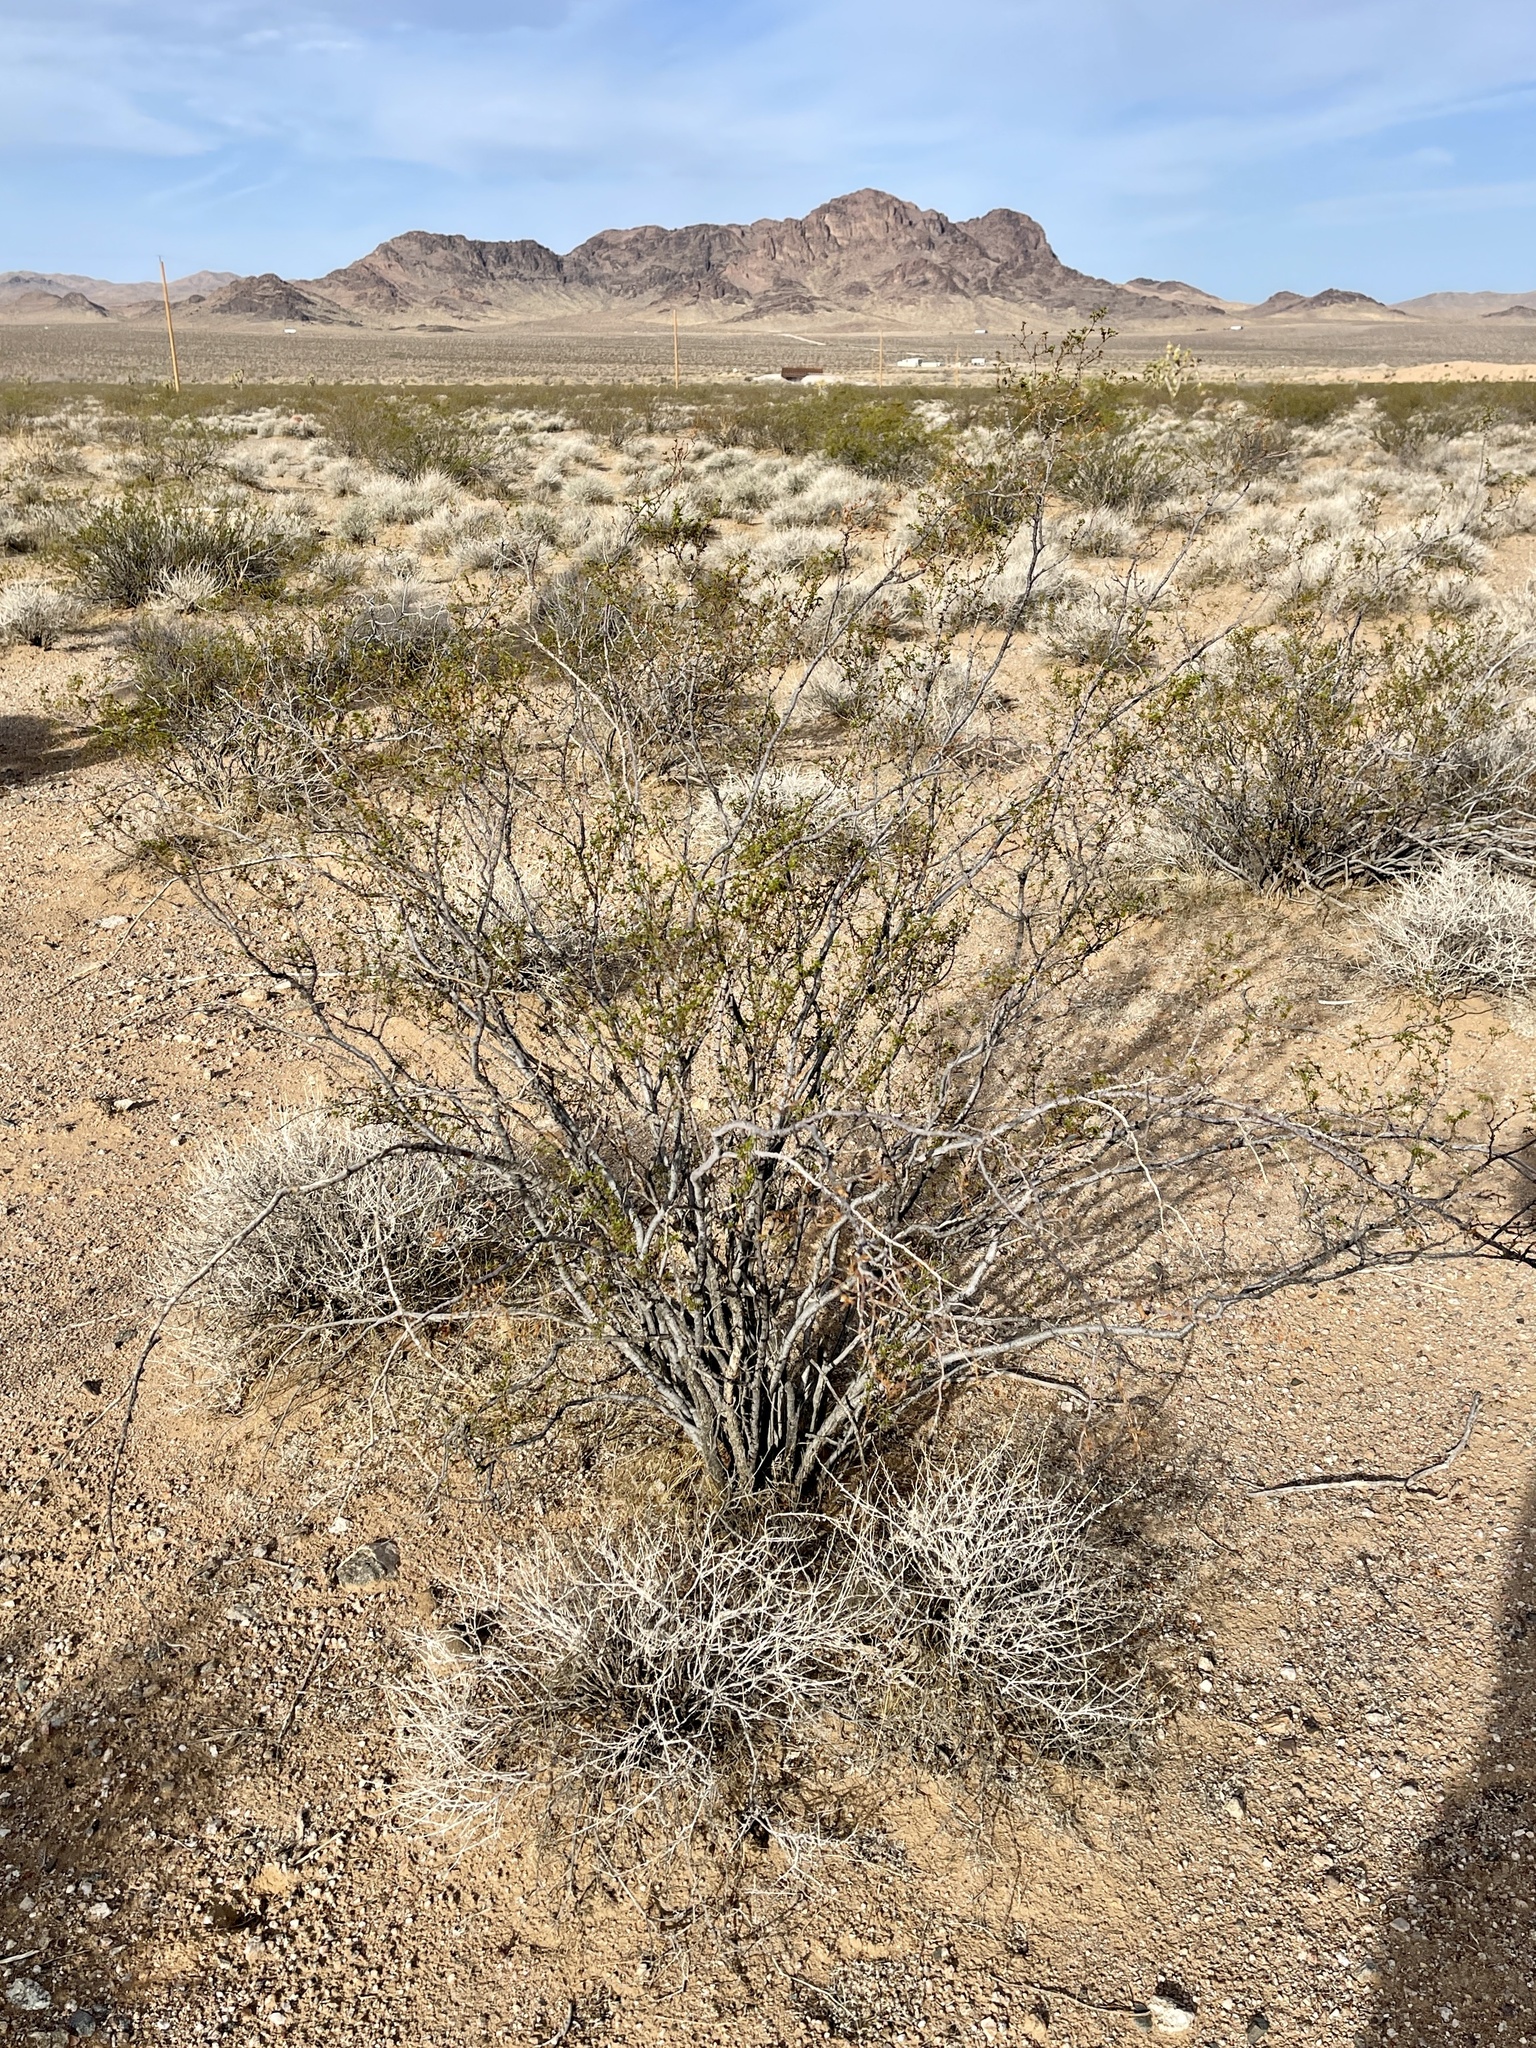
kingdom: Plantae
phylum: Tracheophyta
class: Magnoliopsida
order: Zygophyllales
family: Zygophyllaceae
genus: Larrea
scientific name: Larrea tridentata
